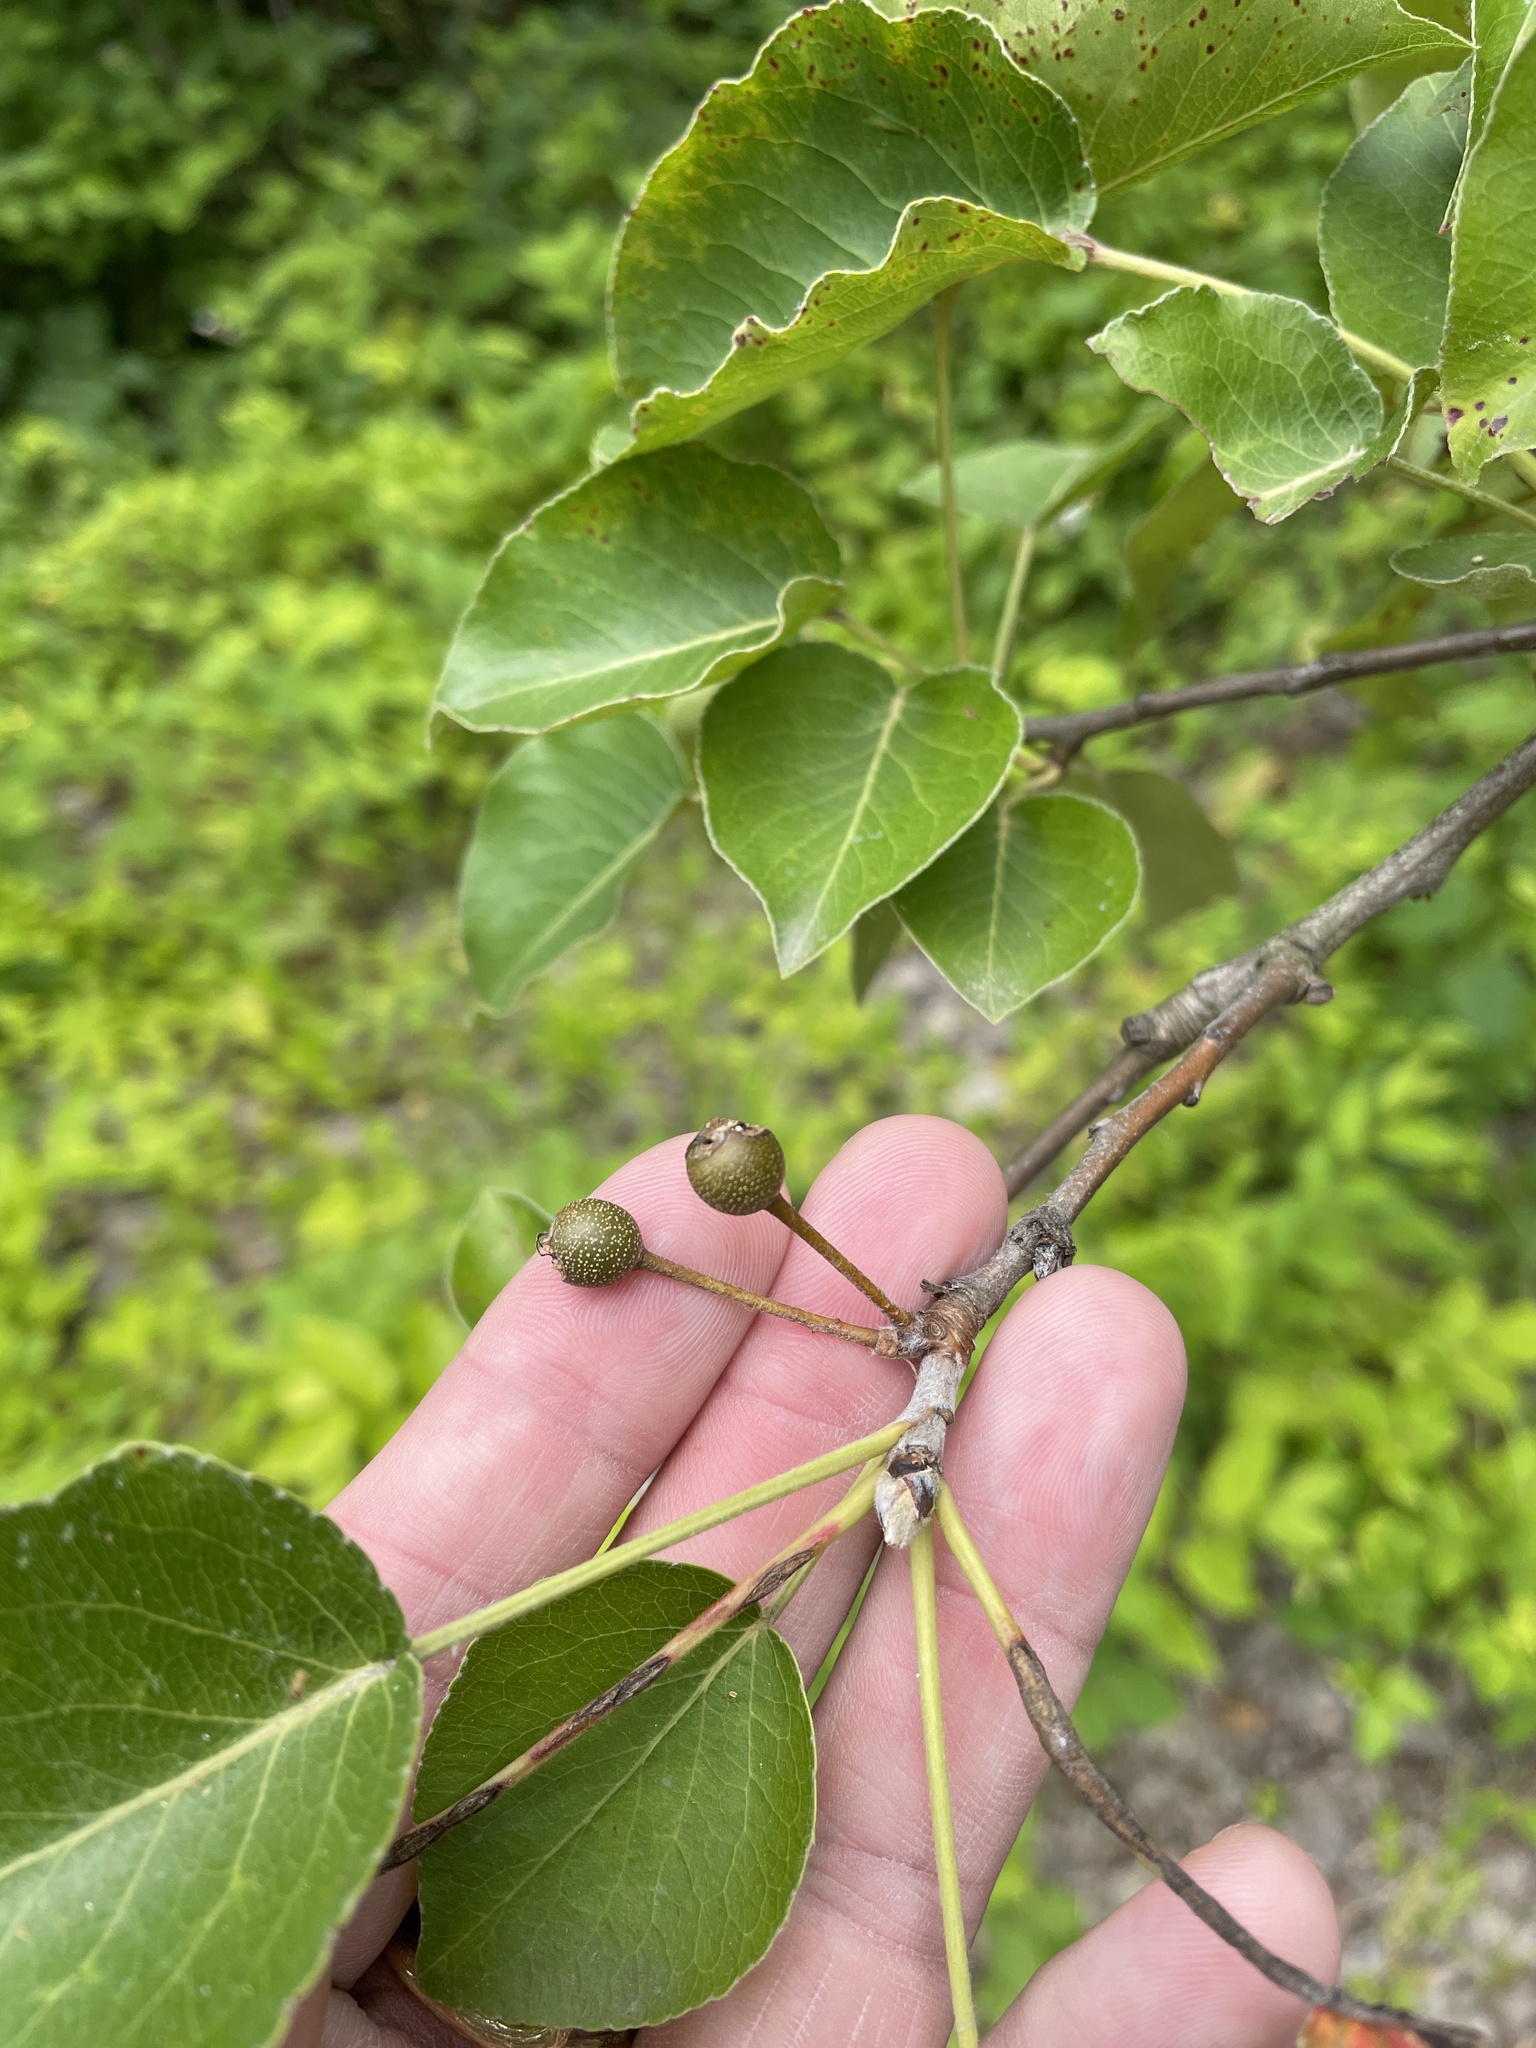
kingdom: Plantae
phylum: Tracheophyta
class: Magnoliopsida
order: Rosales
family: Rosaceae
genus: Pyrus
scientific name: Pyrus calleryana
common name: Callery pear
